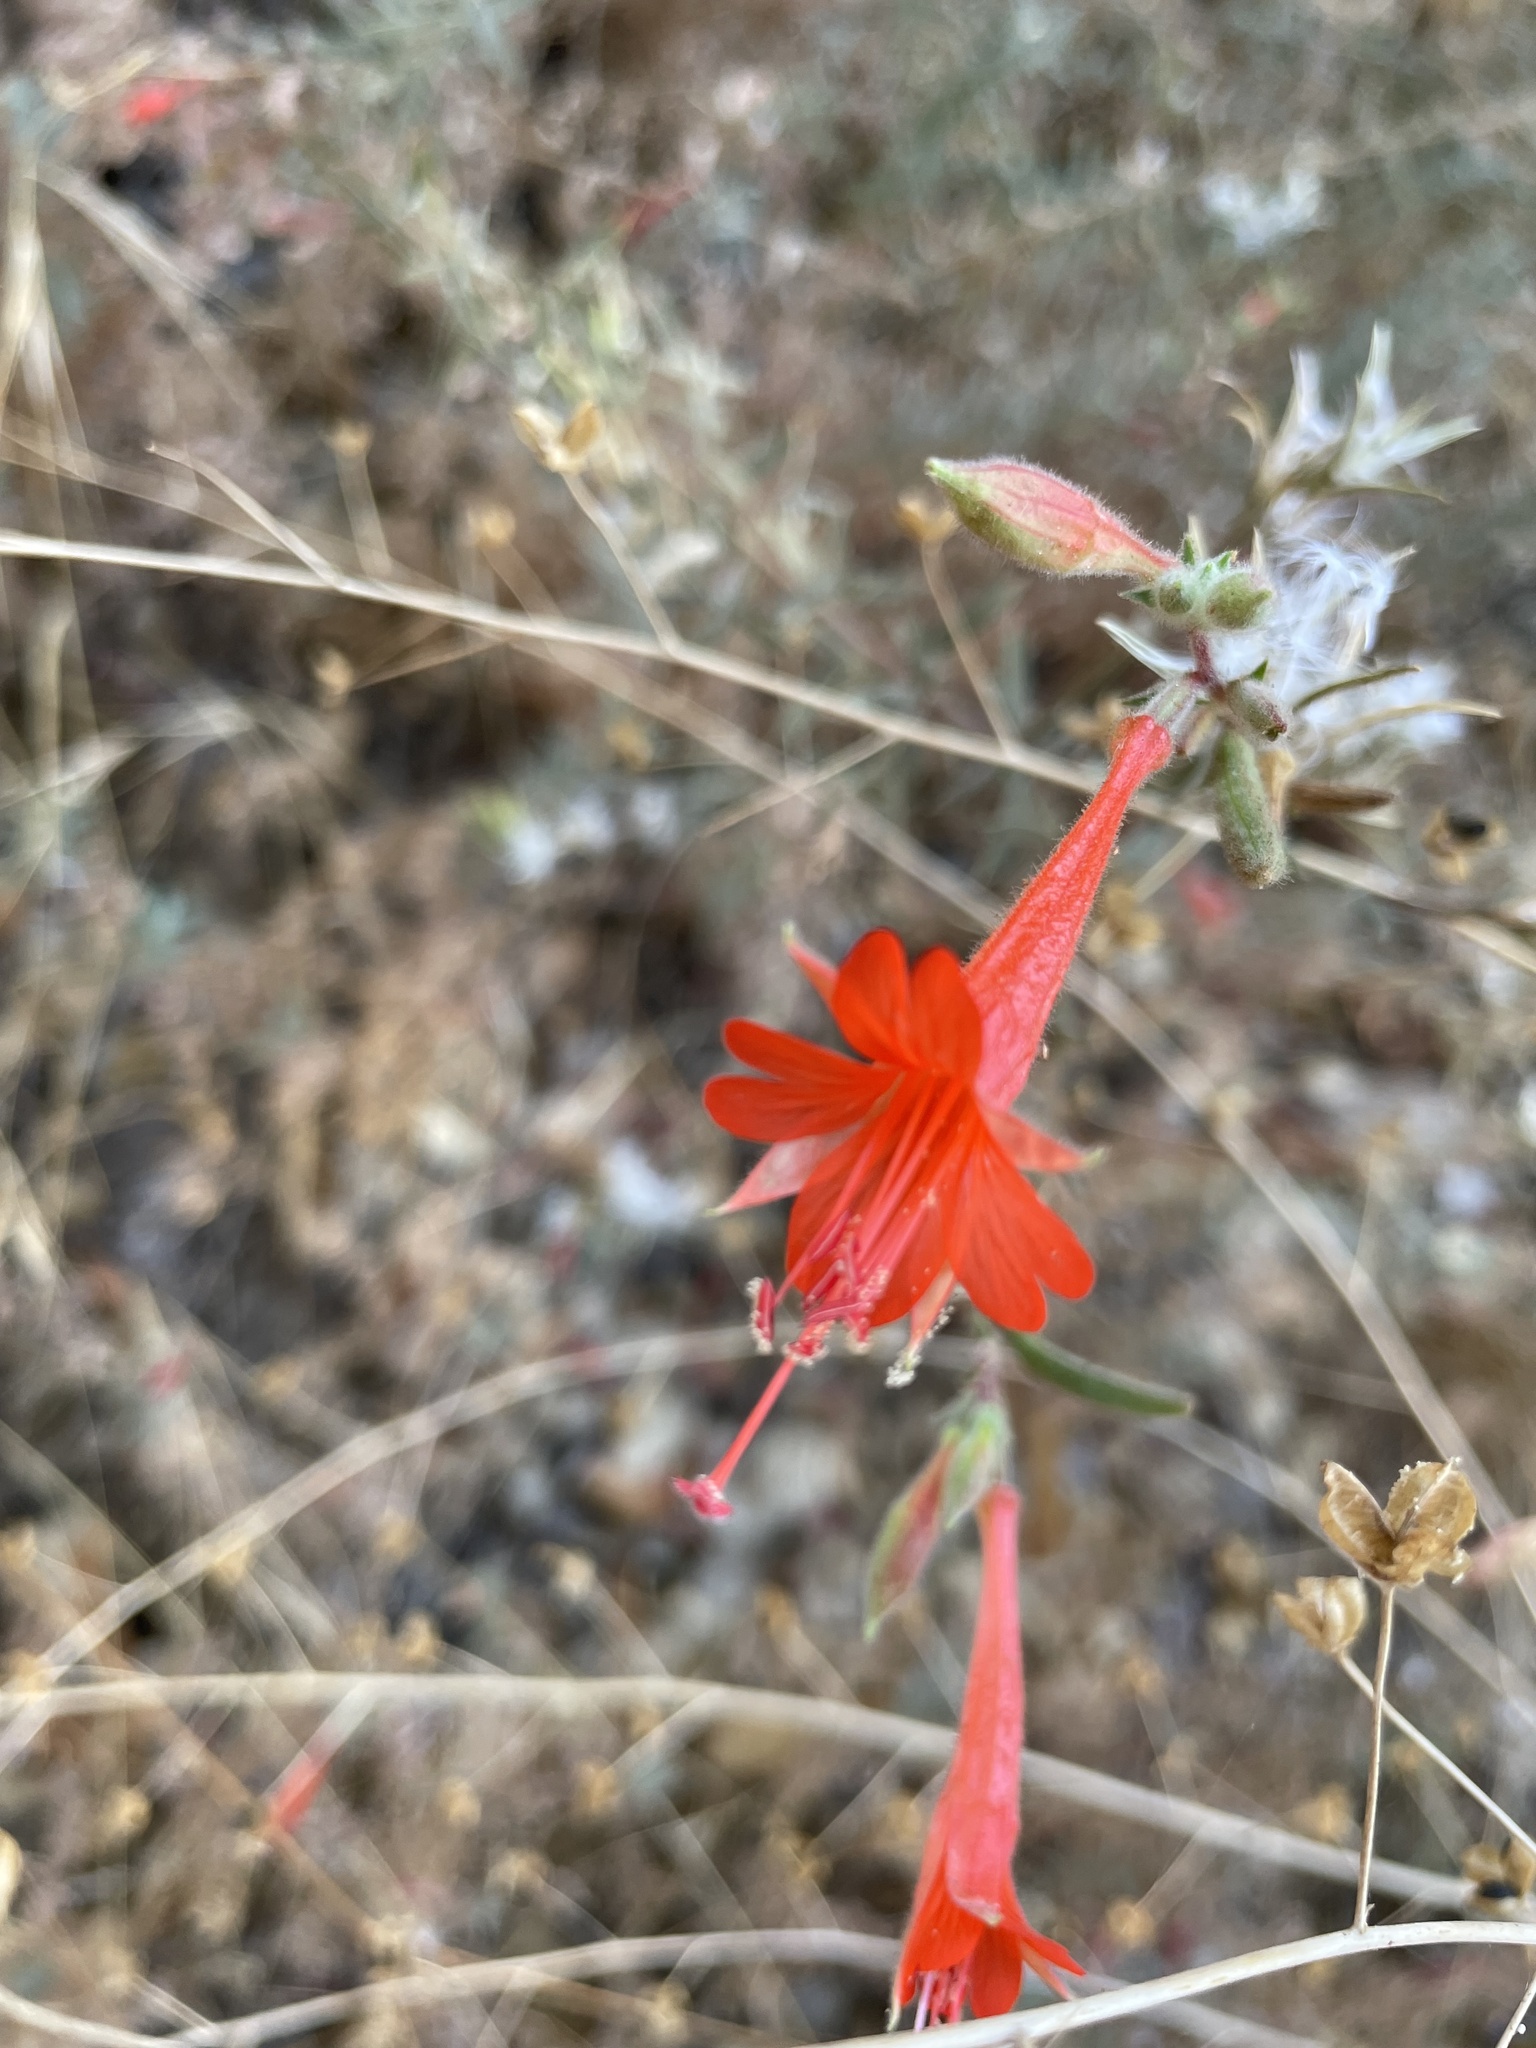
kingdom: Plantae
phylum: Tracheophyta
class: Magnoliopsida
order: Myrtales
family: Onagraceae
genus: Epilobium
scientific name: Epilobium canum
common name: California-fuchsia
